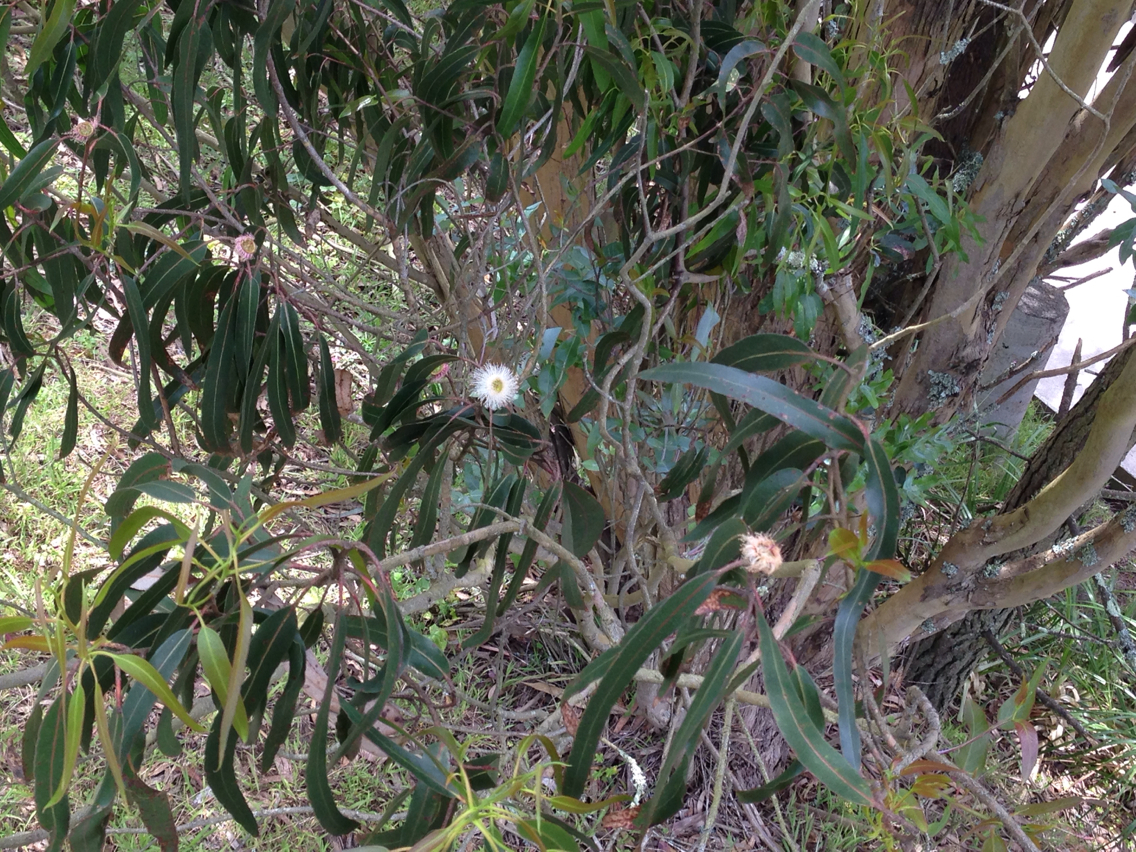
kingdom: Plantae
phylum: Tracheophyta
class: Magnoliopsida
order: Myrtales
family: Myrtaceae
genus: Eucalyptus
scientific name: Eucalyptus globulus
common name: Southern blue-gum
